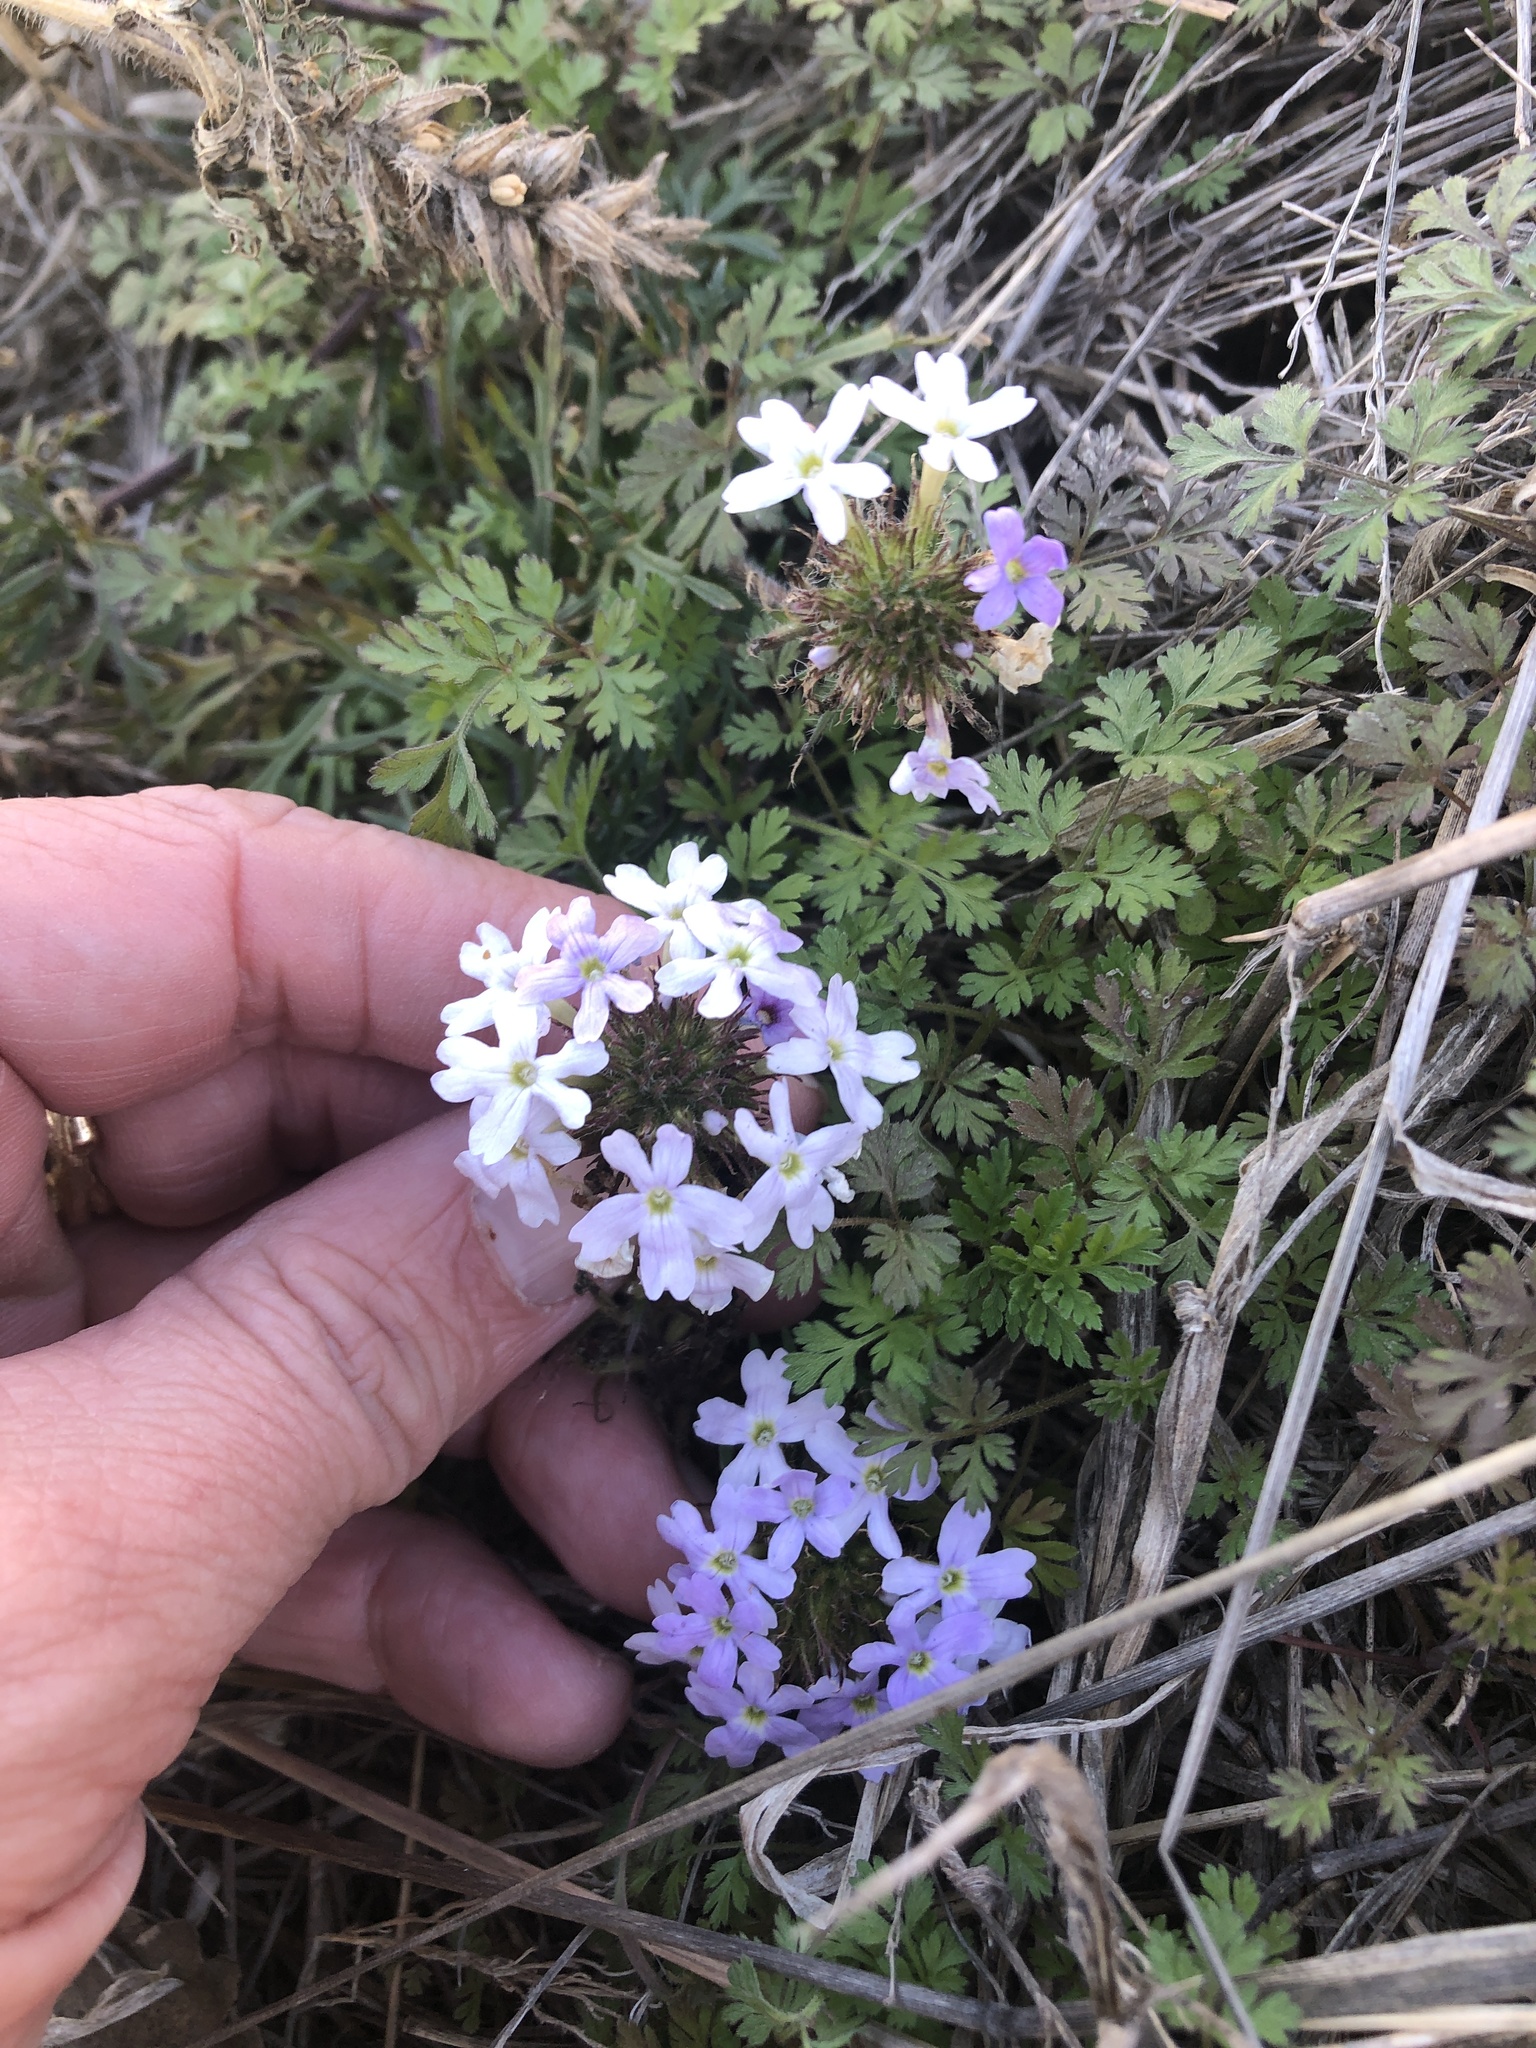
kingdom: Plantae
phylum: Tracheophyta
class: Magnoliopsida
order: Lamiales
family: Verbenaceae
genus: Verbena
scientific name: Verbena bipinnatifida
